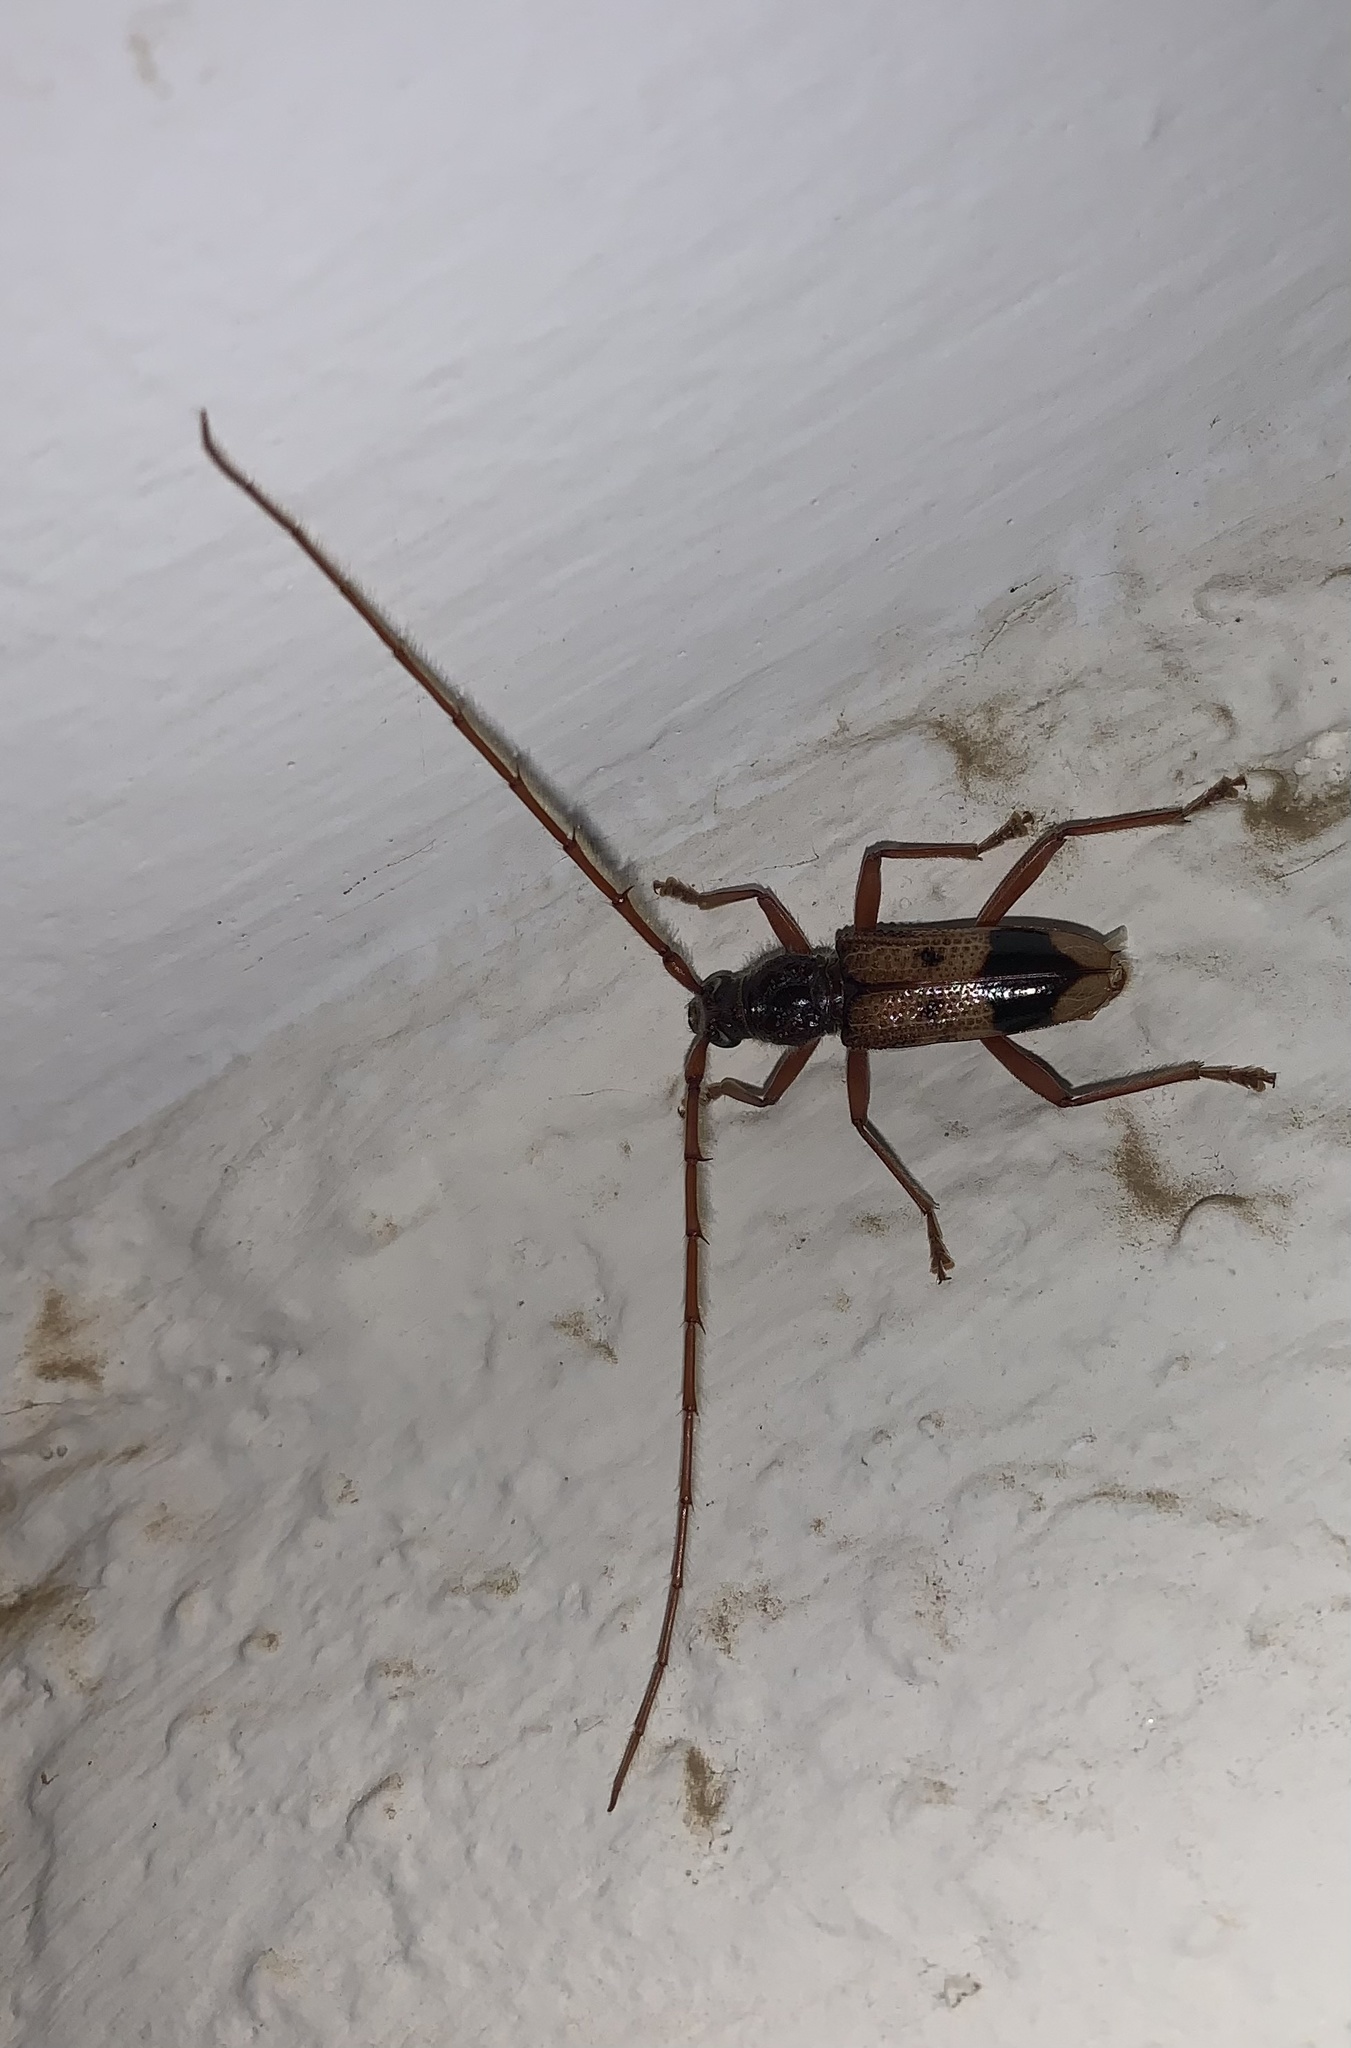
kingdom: Animalia
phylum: Arthropoda
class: Insecta
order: Coleoptera
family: Cerambycidae
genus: Phoracantha
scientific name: Phoracantha recurva
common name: Eucalyptus longhorned borer
